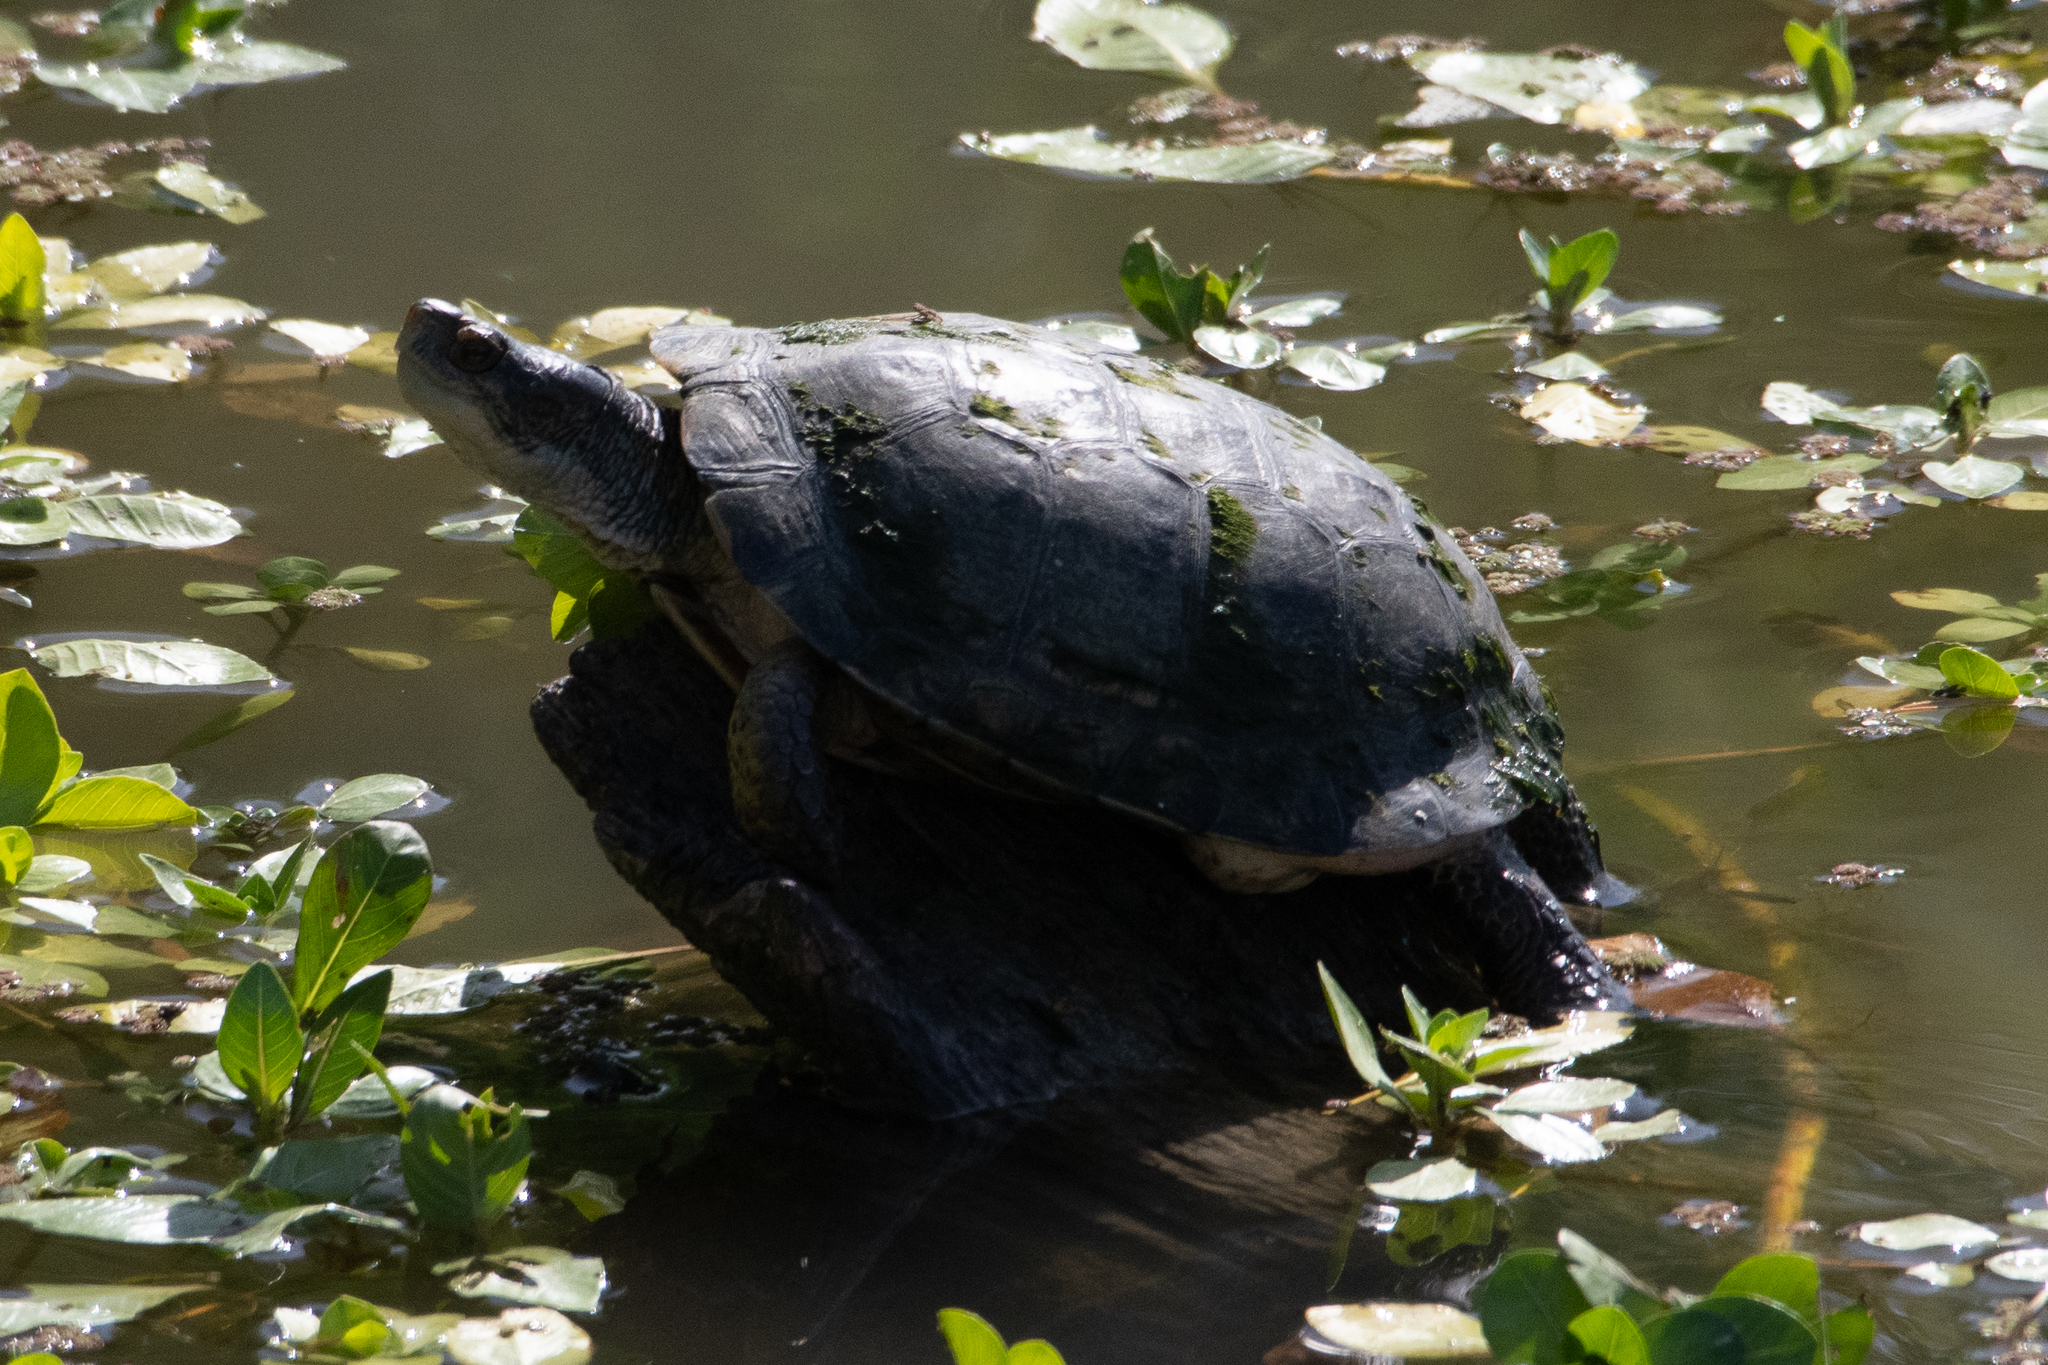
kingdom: Animalia
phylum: Chordata
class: Testudines
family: Emydidae
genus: Actinemys
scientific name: Actinemys marmorata
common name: Western pond turtle
